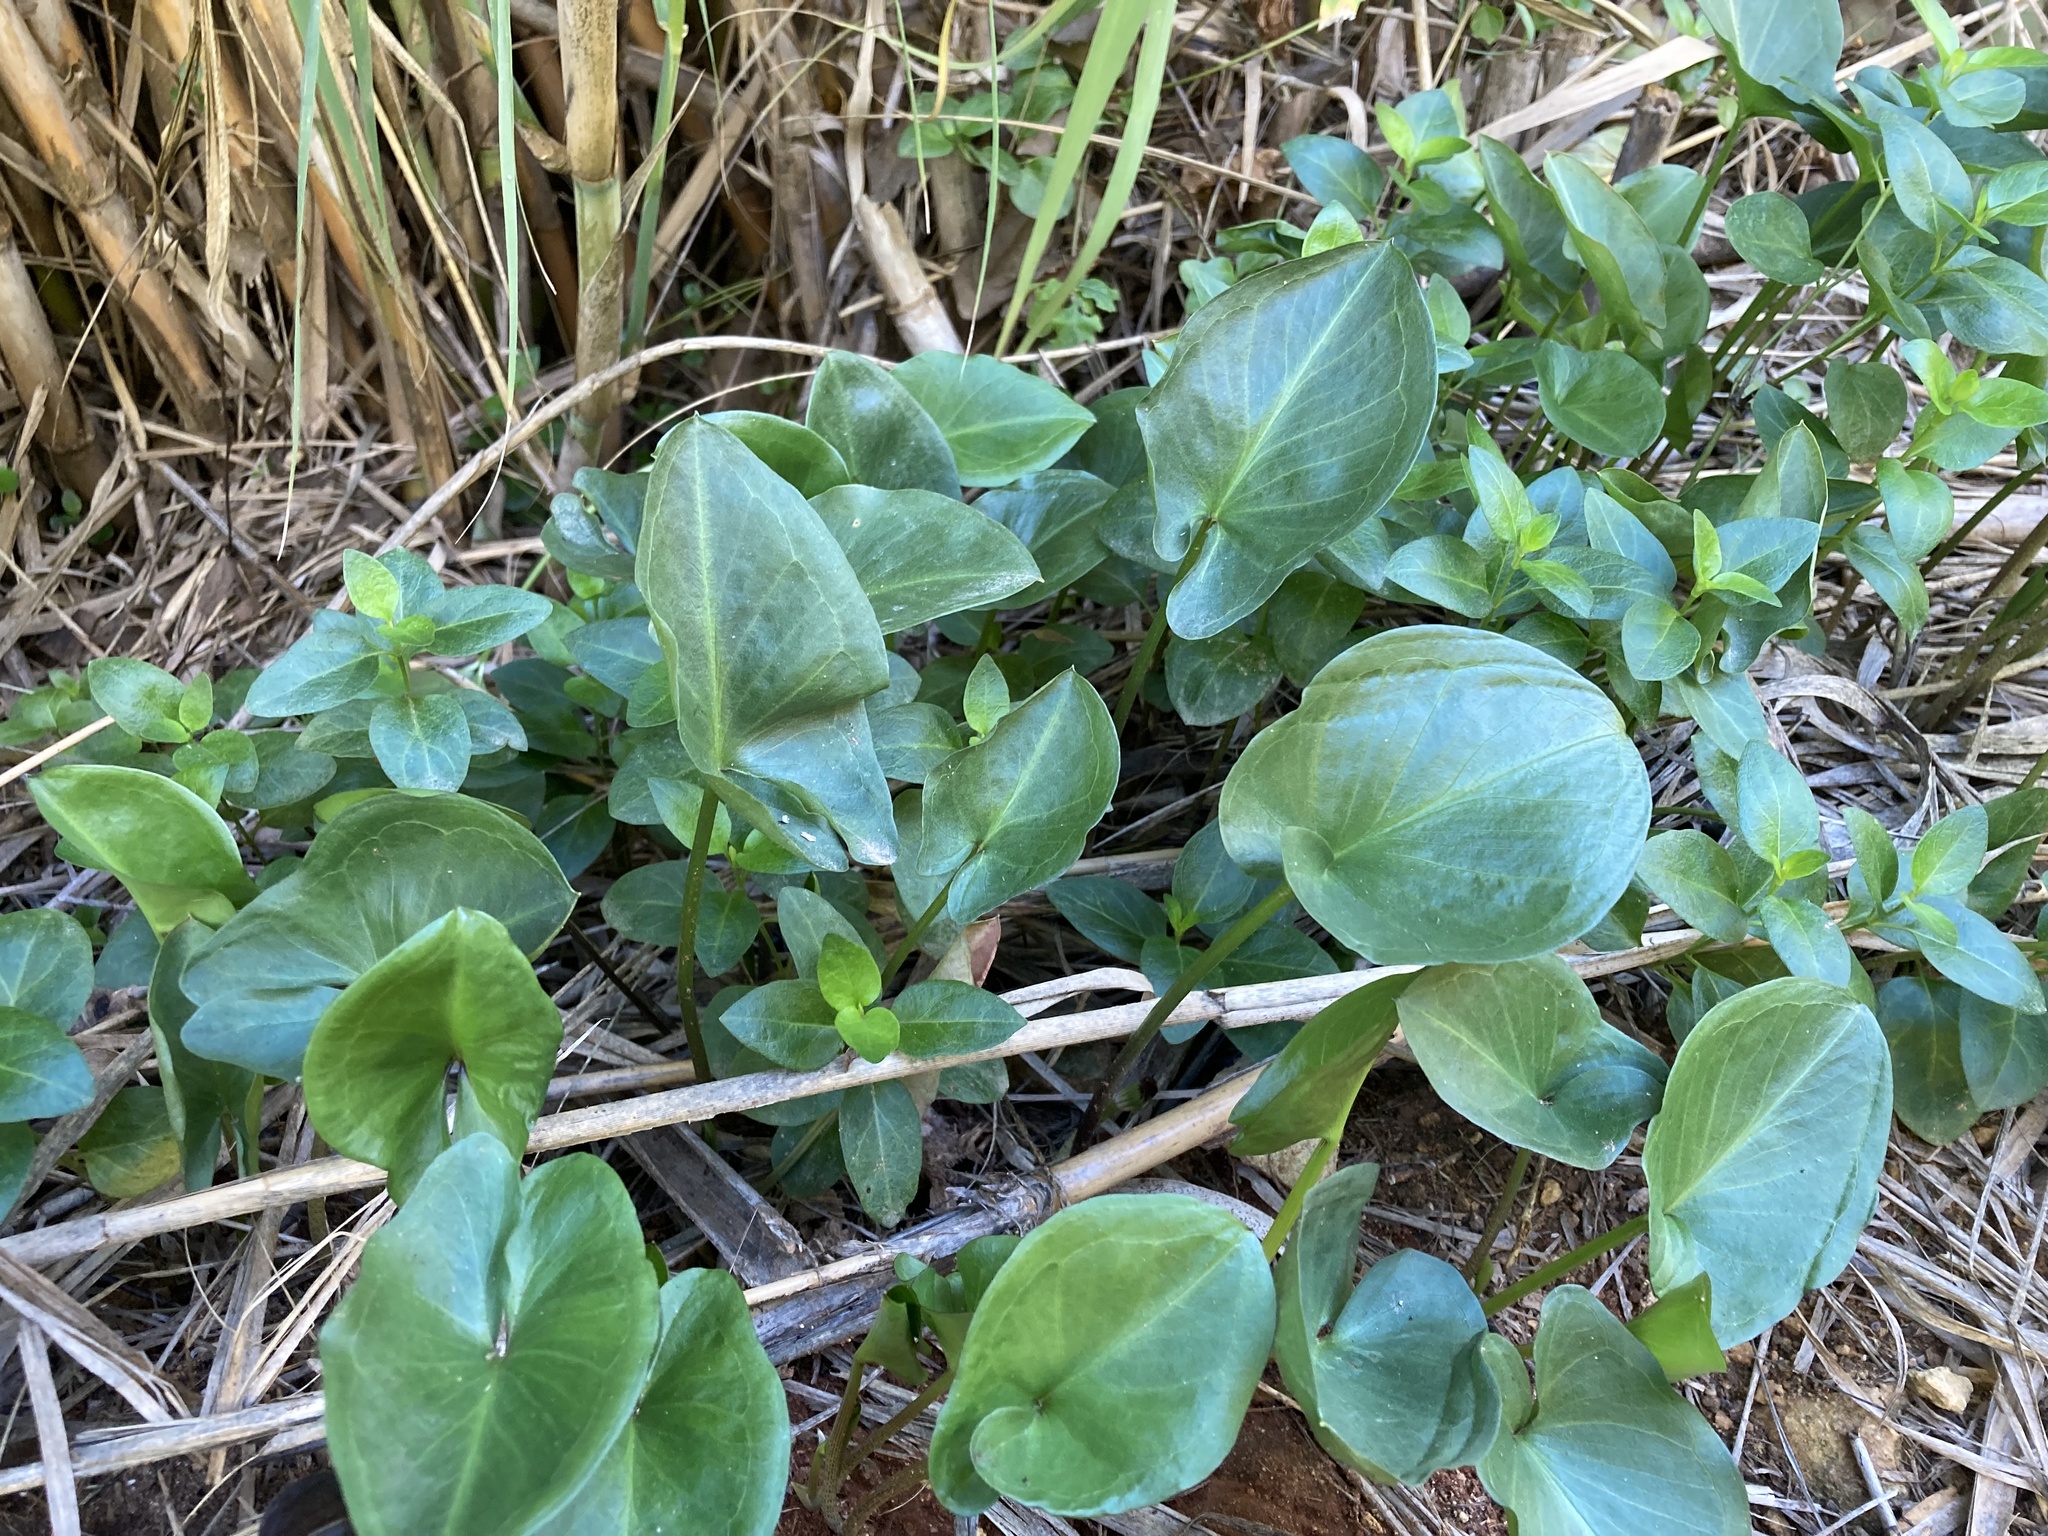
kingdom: Plantae
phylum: Tracheophyta
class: Liliopsida
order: Alismatales
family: Araceae
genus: Arisarum
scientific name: Arisarum simorrhinum
